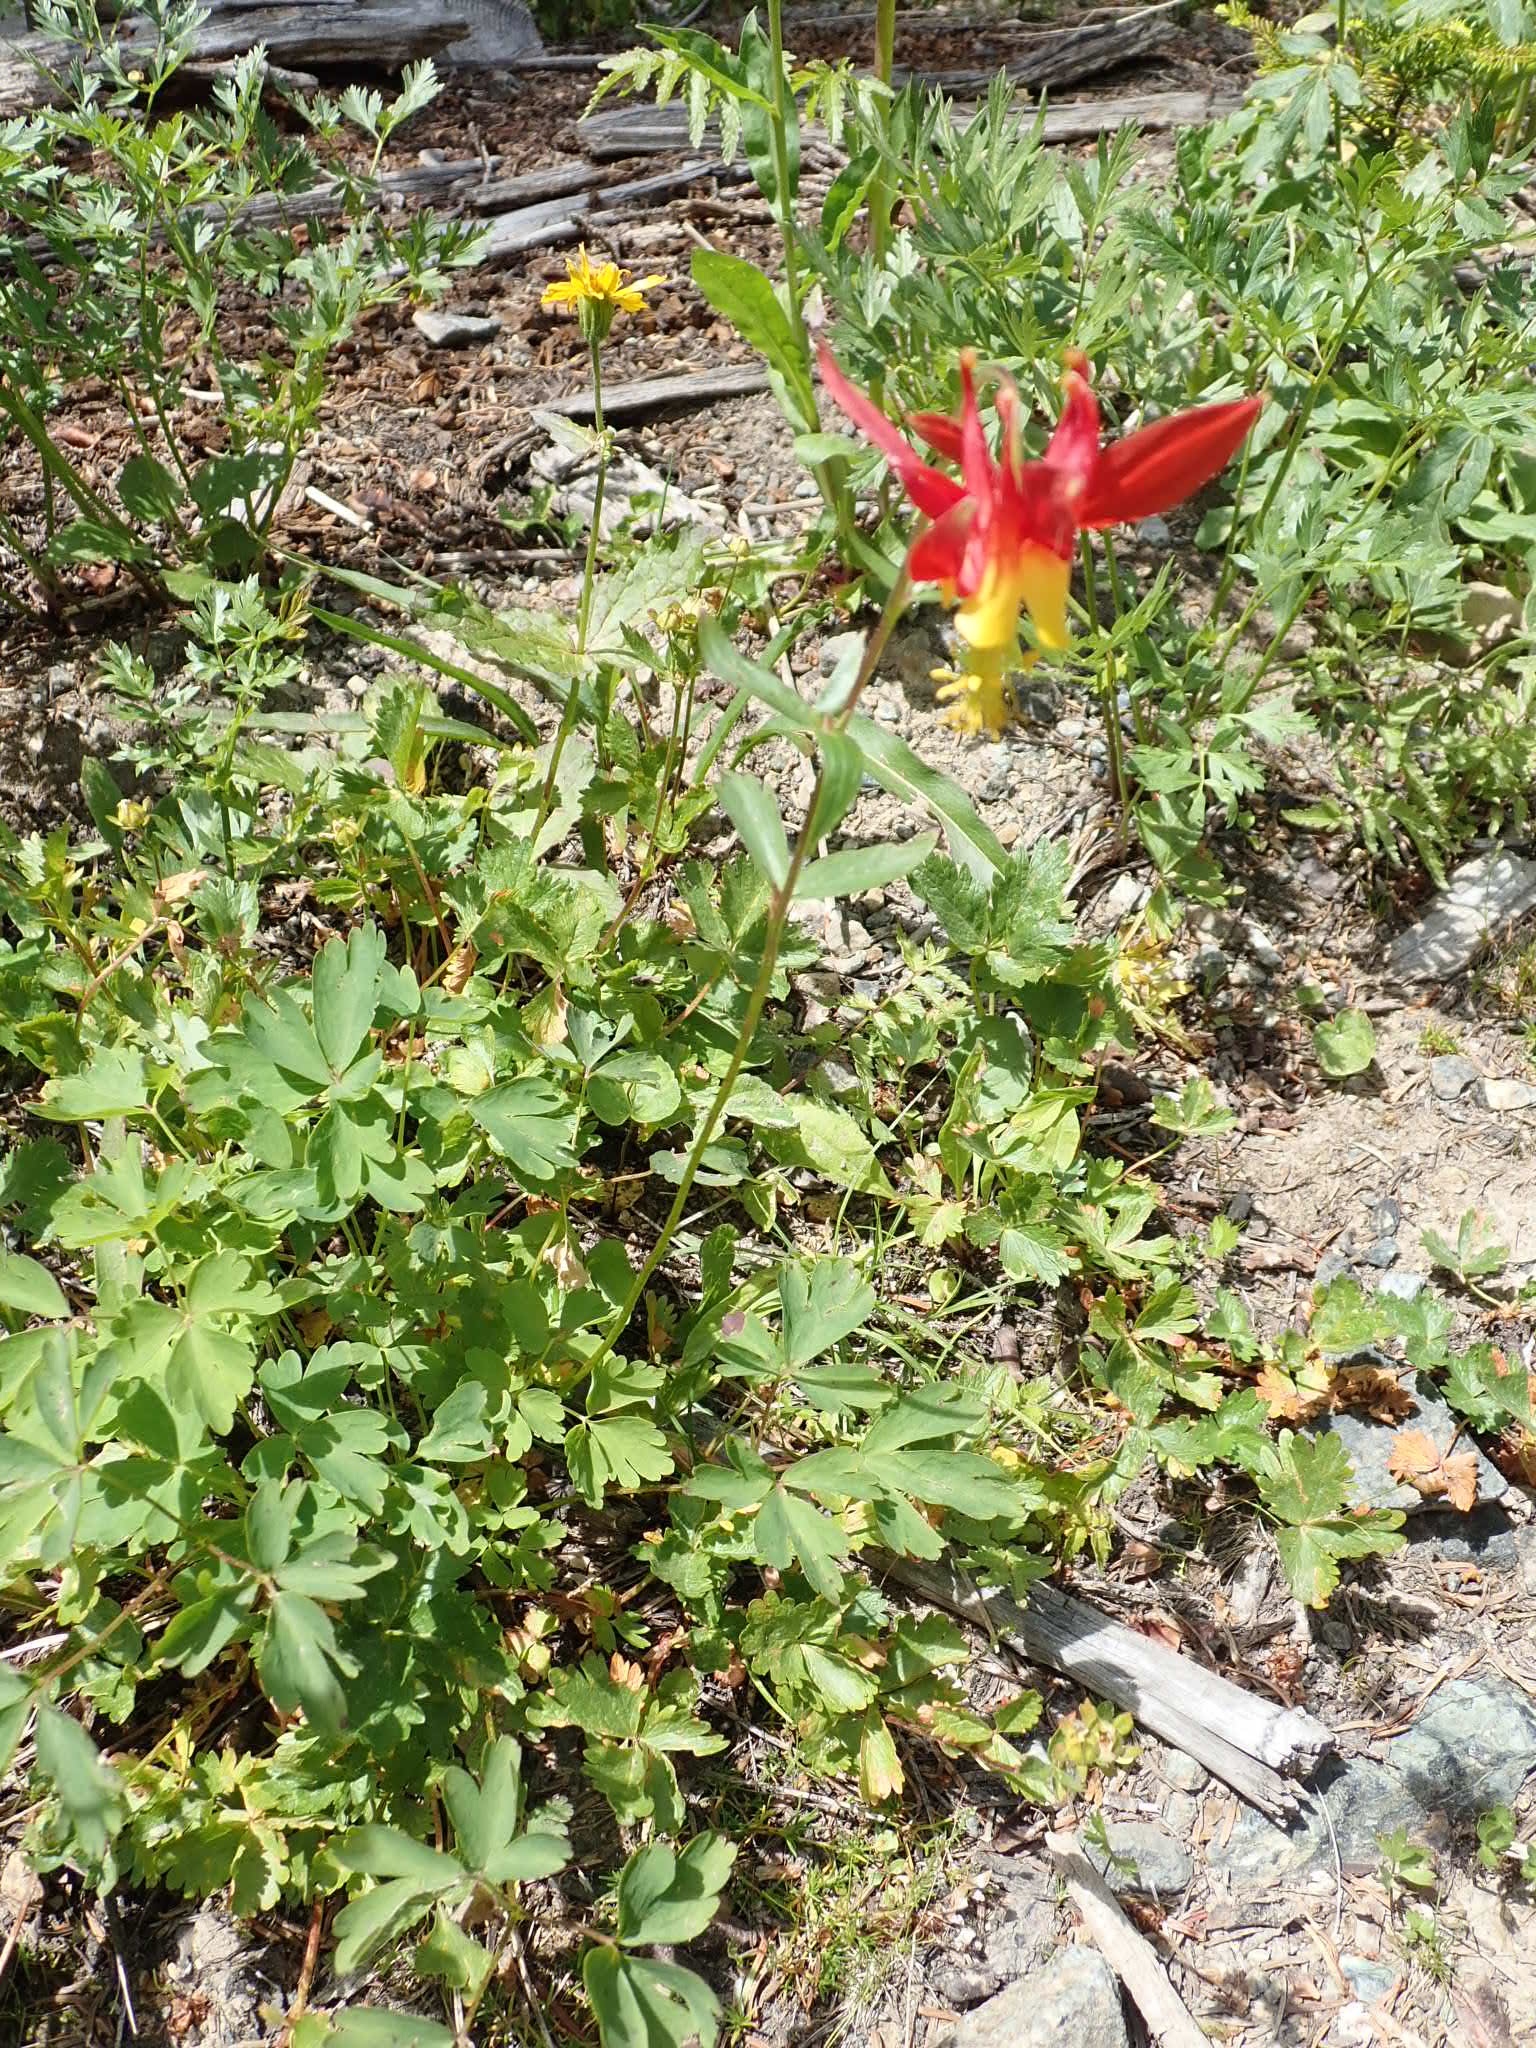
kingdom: Plantae
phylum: Tracheophyta
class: Magnoliopsida
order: Ranunculales
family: Ranunculaceae
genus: Aquilegia
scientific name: Aquilegia formosa
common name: Sitka columbine
